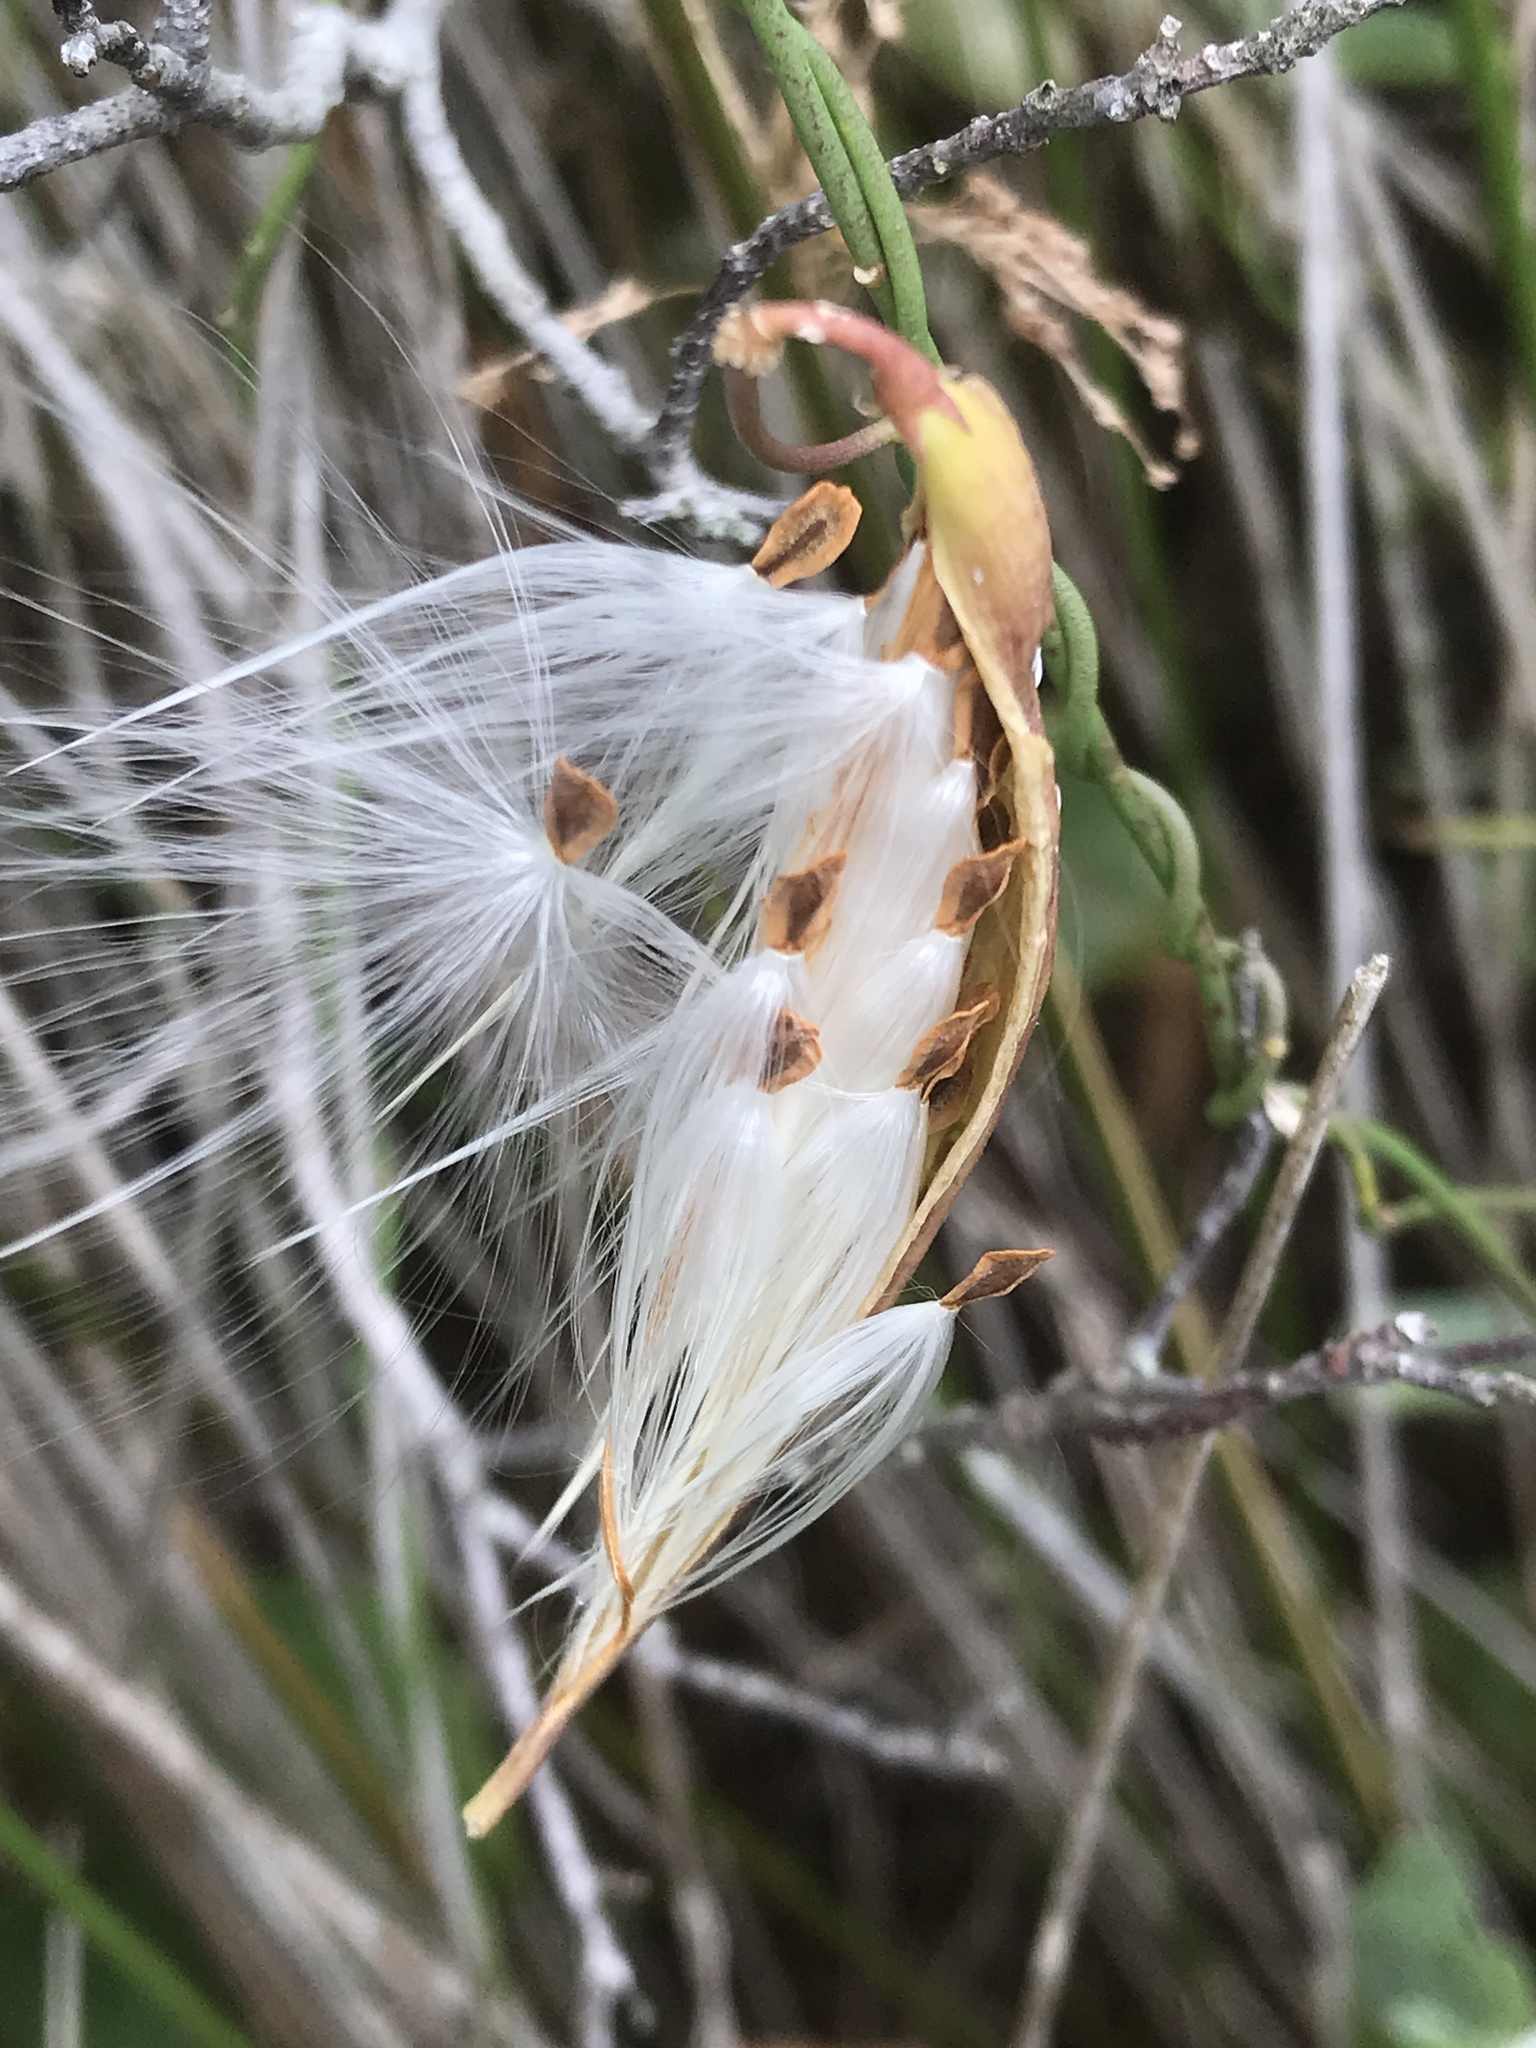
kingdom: Plantae
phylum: Tracheophyta
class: Magnoliopsida
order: Gentianales
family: Apocynaceae
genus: Pattalias
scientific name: Pattalias
